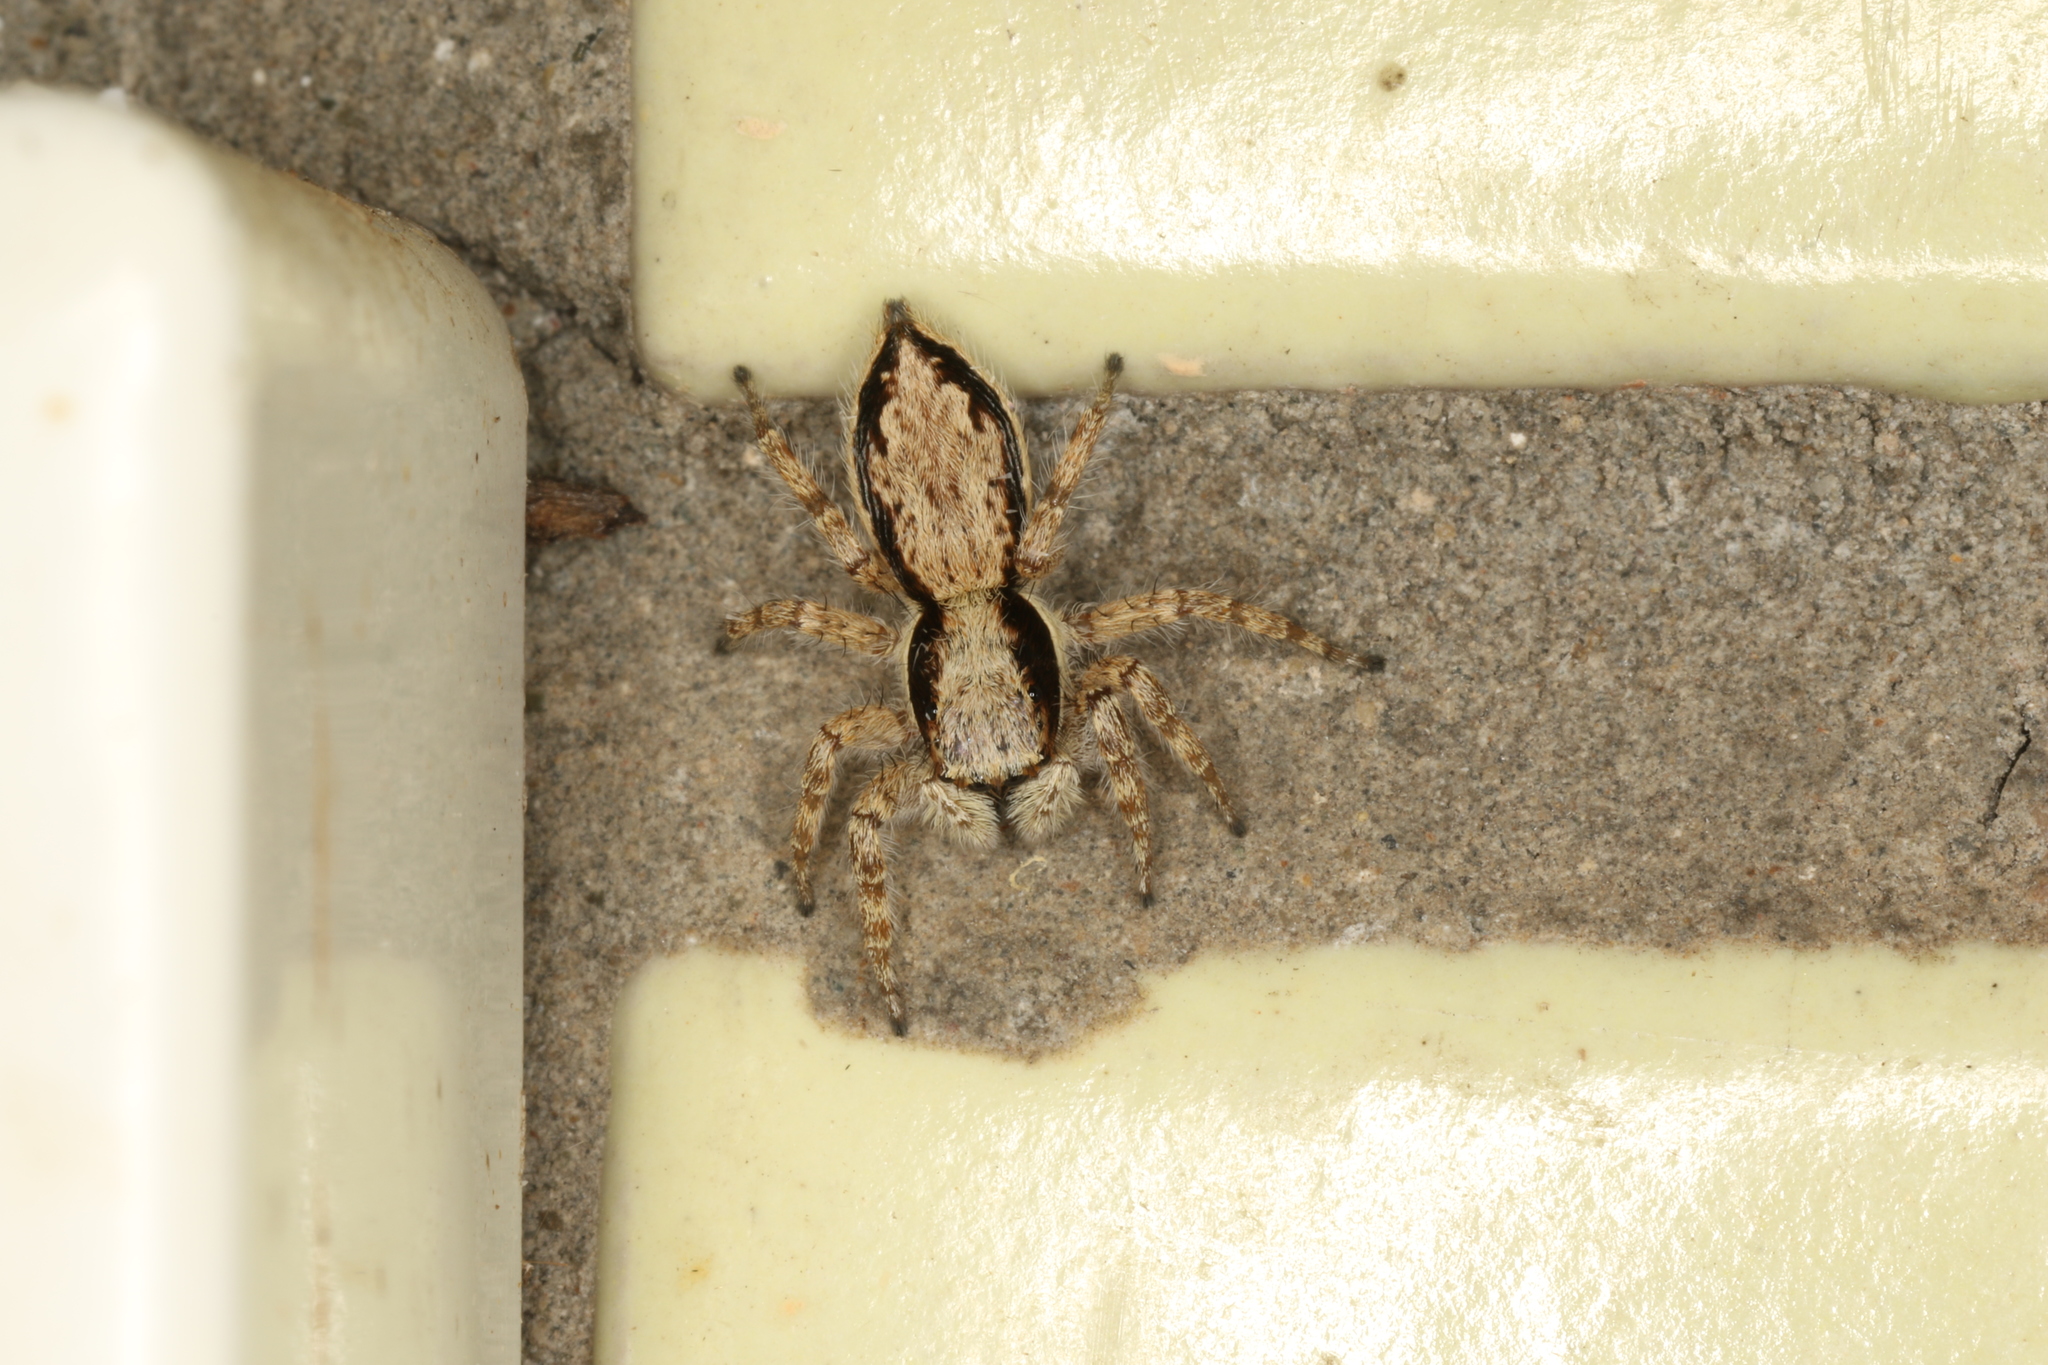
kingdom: Animalia
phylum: Arthropoda
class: Arachnida
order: Araneae
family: Salticidae
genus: Menemerus
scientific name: Menemerus bivittatus
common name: Gray wall jumper
